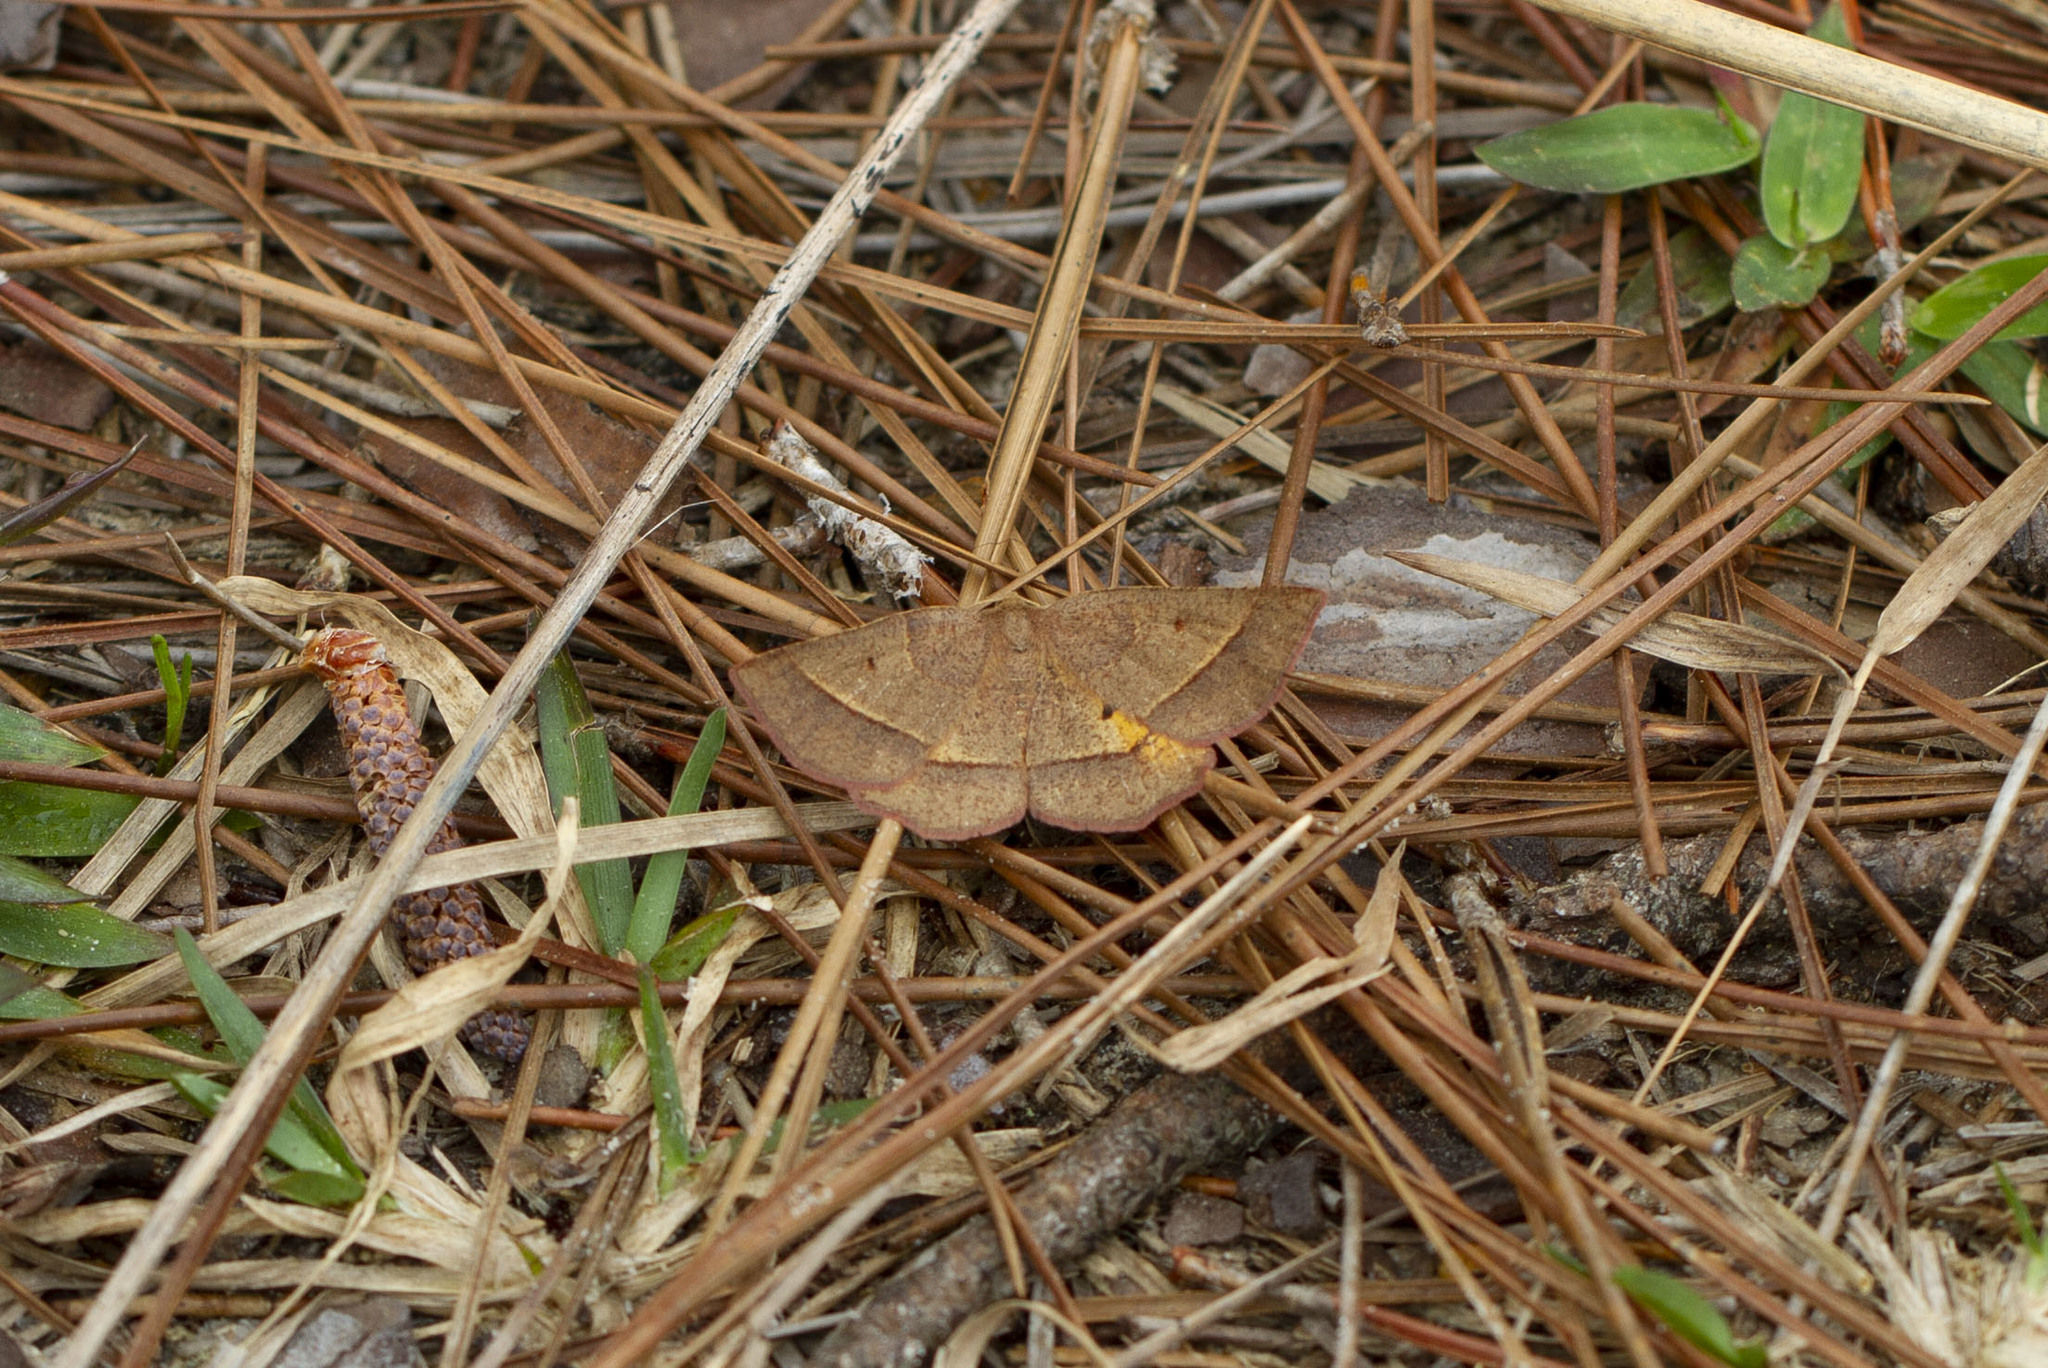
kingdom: Animalia
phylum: Arthropoda
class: Insecta
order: Lepidoptera
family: Geometridae
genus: Metarranthis
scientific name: Metarranthis obfirmaria
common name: Yellow-washed metarranthis
